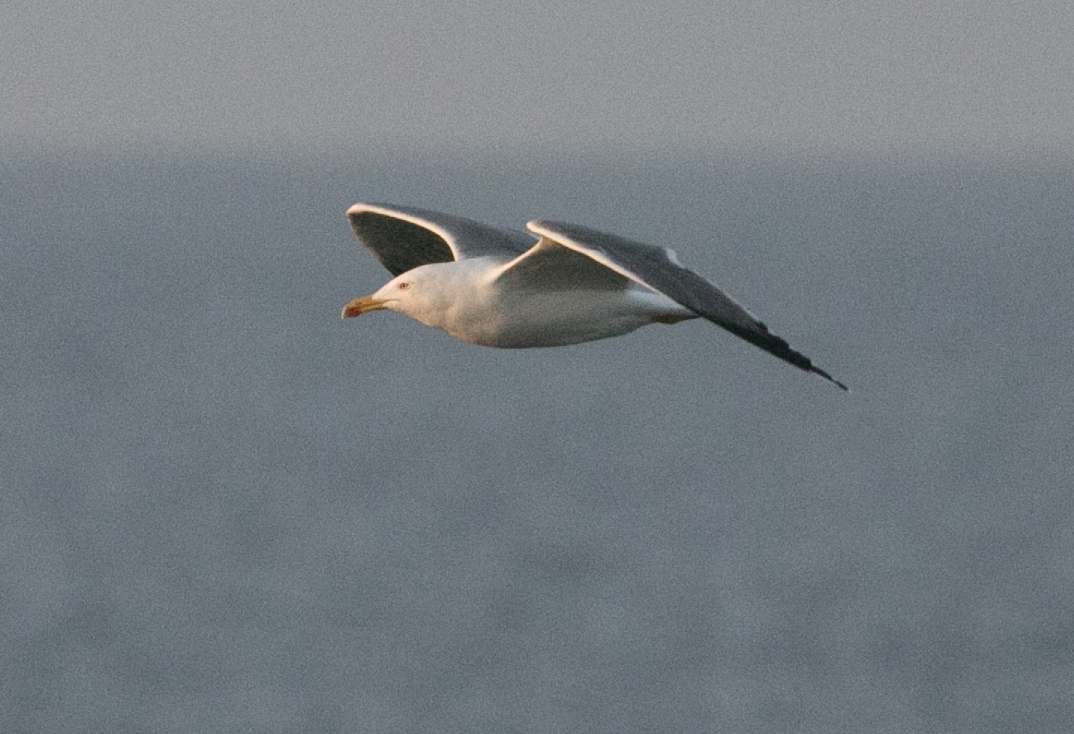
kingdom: Animalia
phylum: Chordata
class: Aves
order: Charadriiformes
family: Laridae
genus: Larus
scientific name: Larus michahellis
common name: Yellow-legged gull
